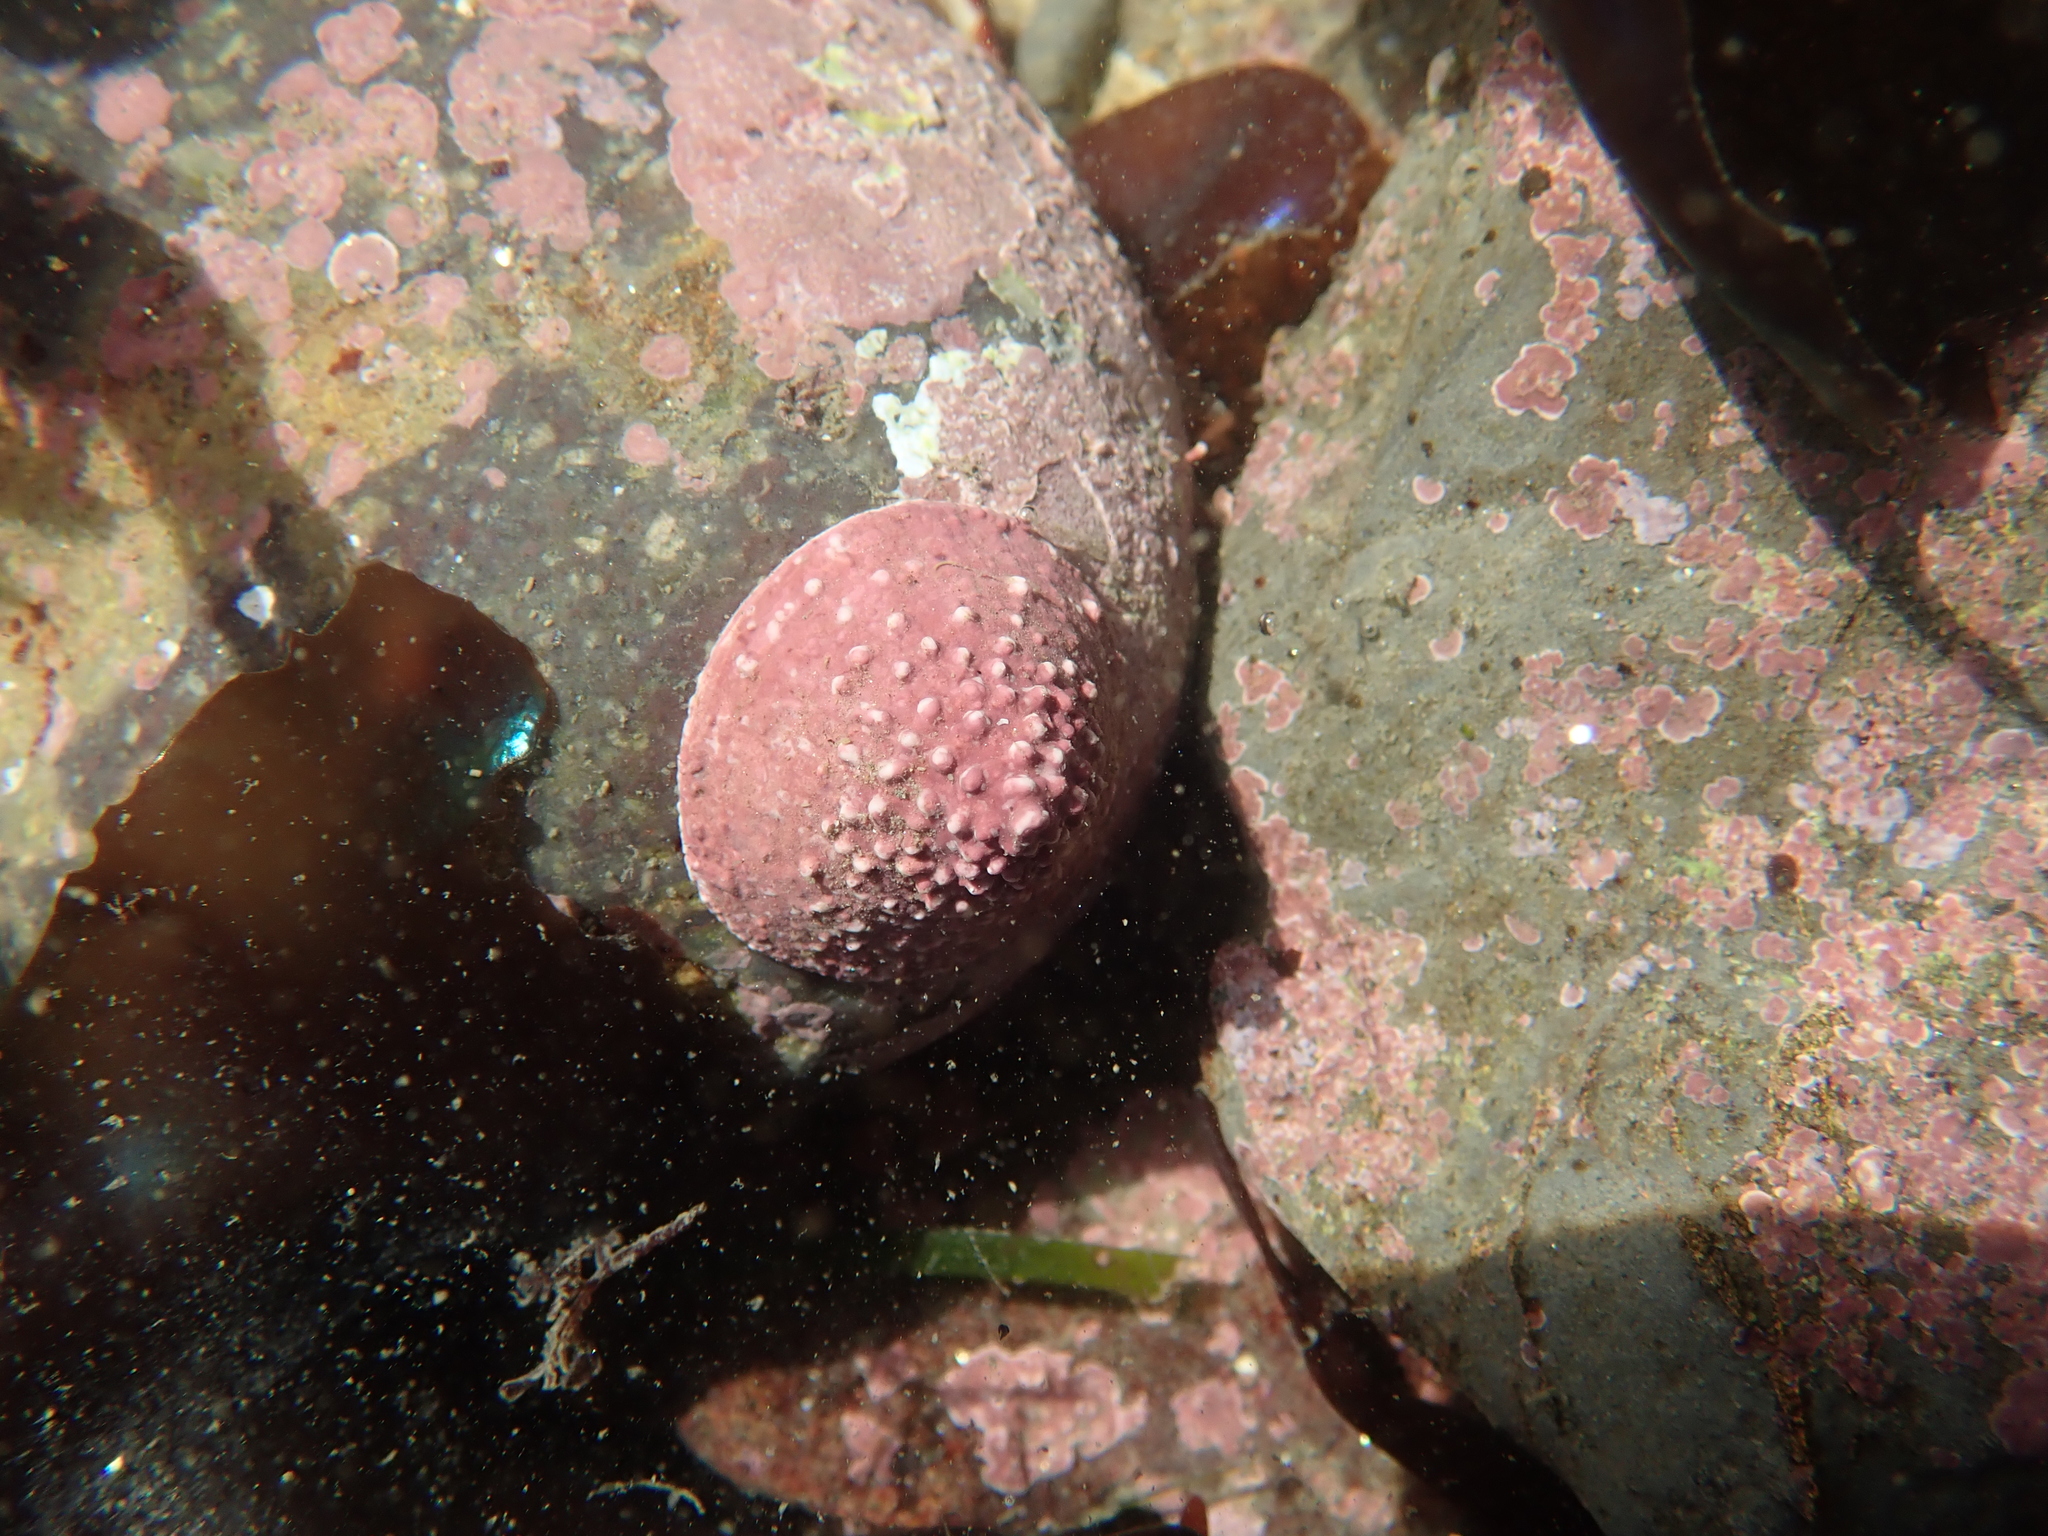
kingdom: Animalia
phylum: Mollusca
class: Gastropoda
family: Acmaeidae
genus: Acmaea
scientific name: Acmaea mitra
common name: Pacific white cap limpet
